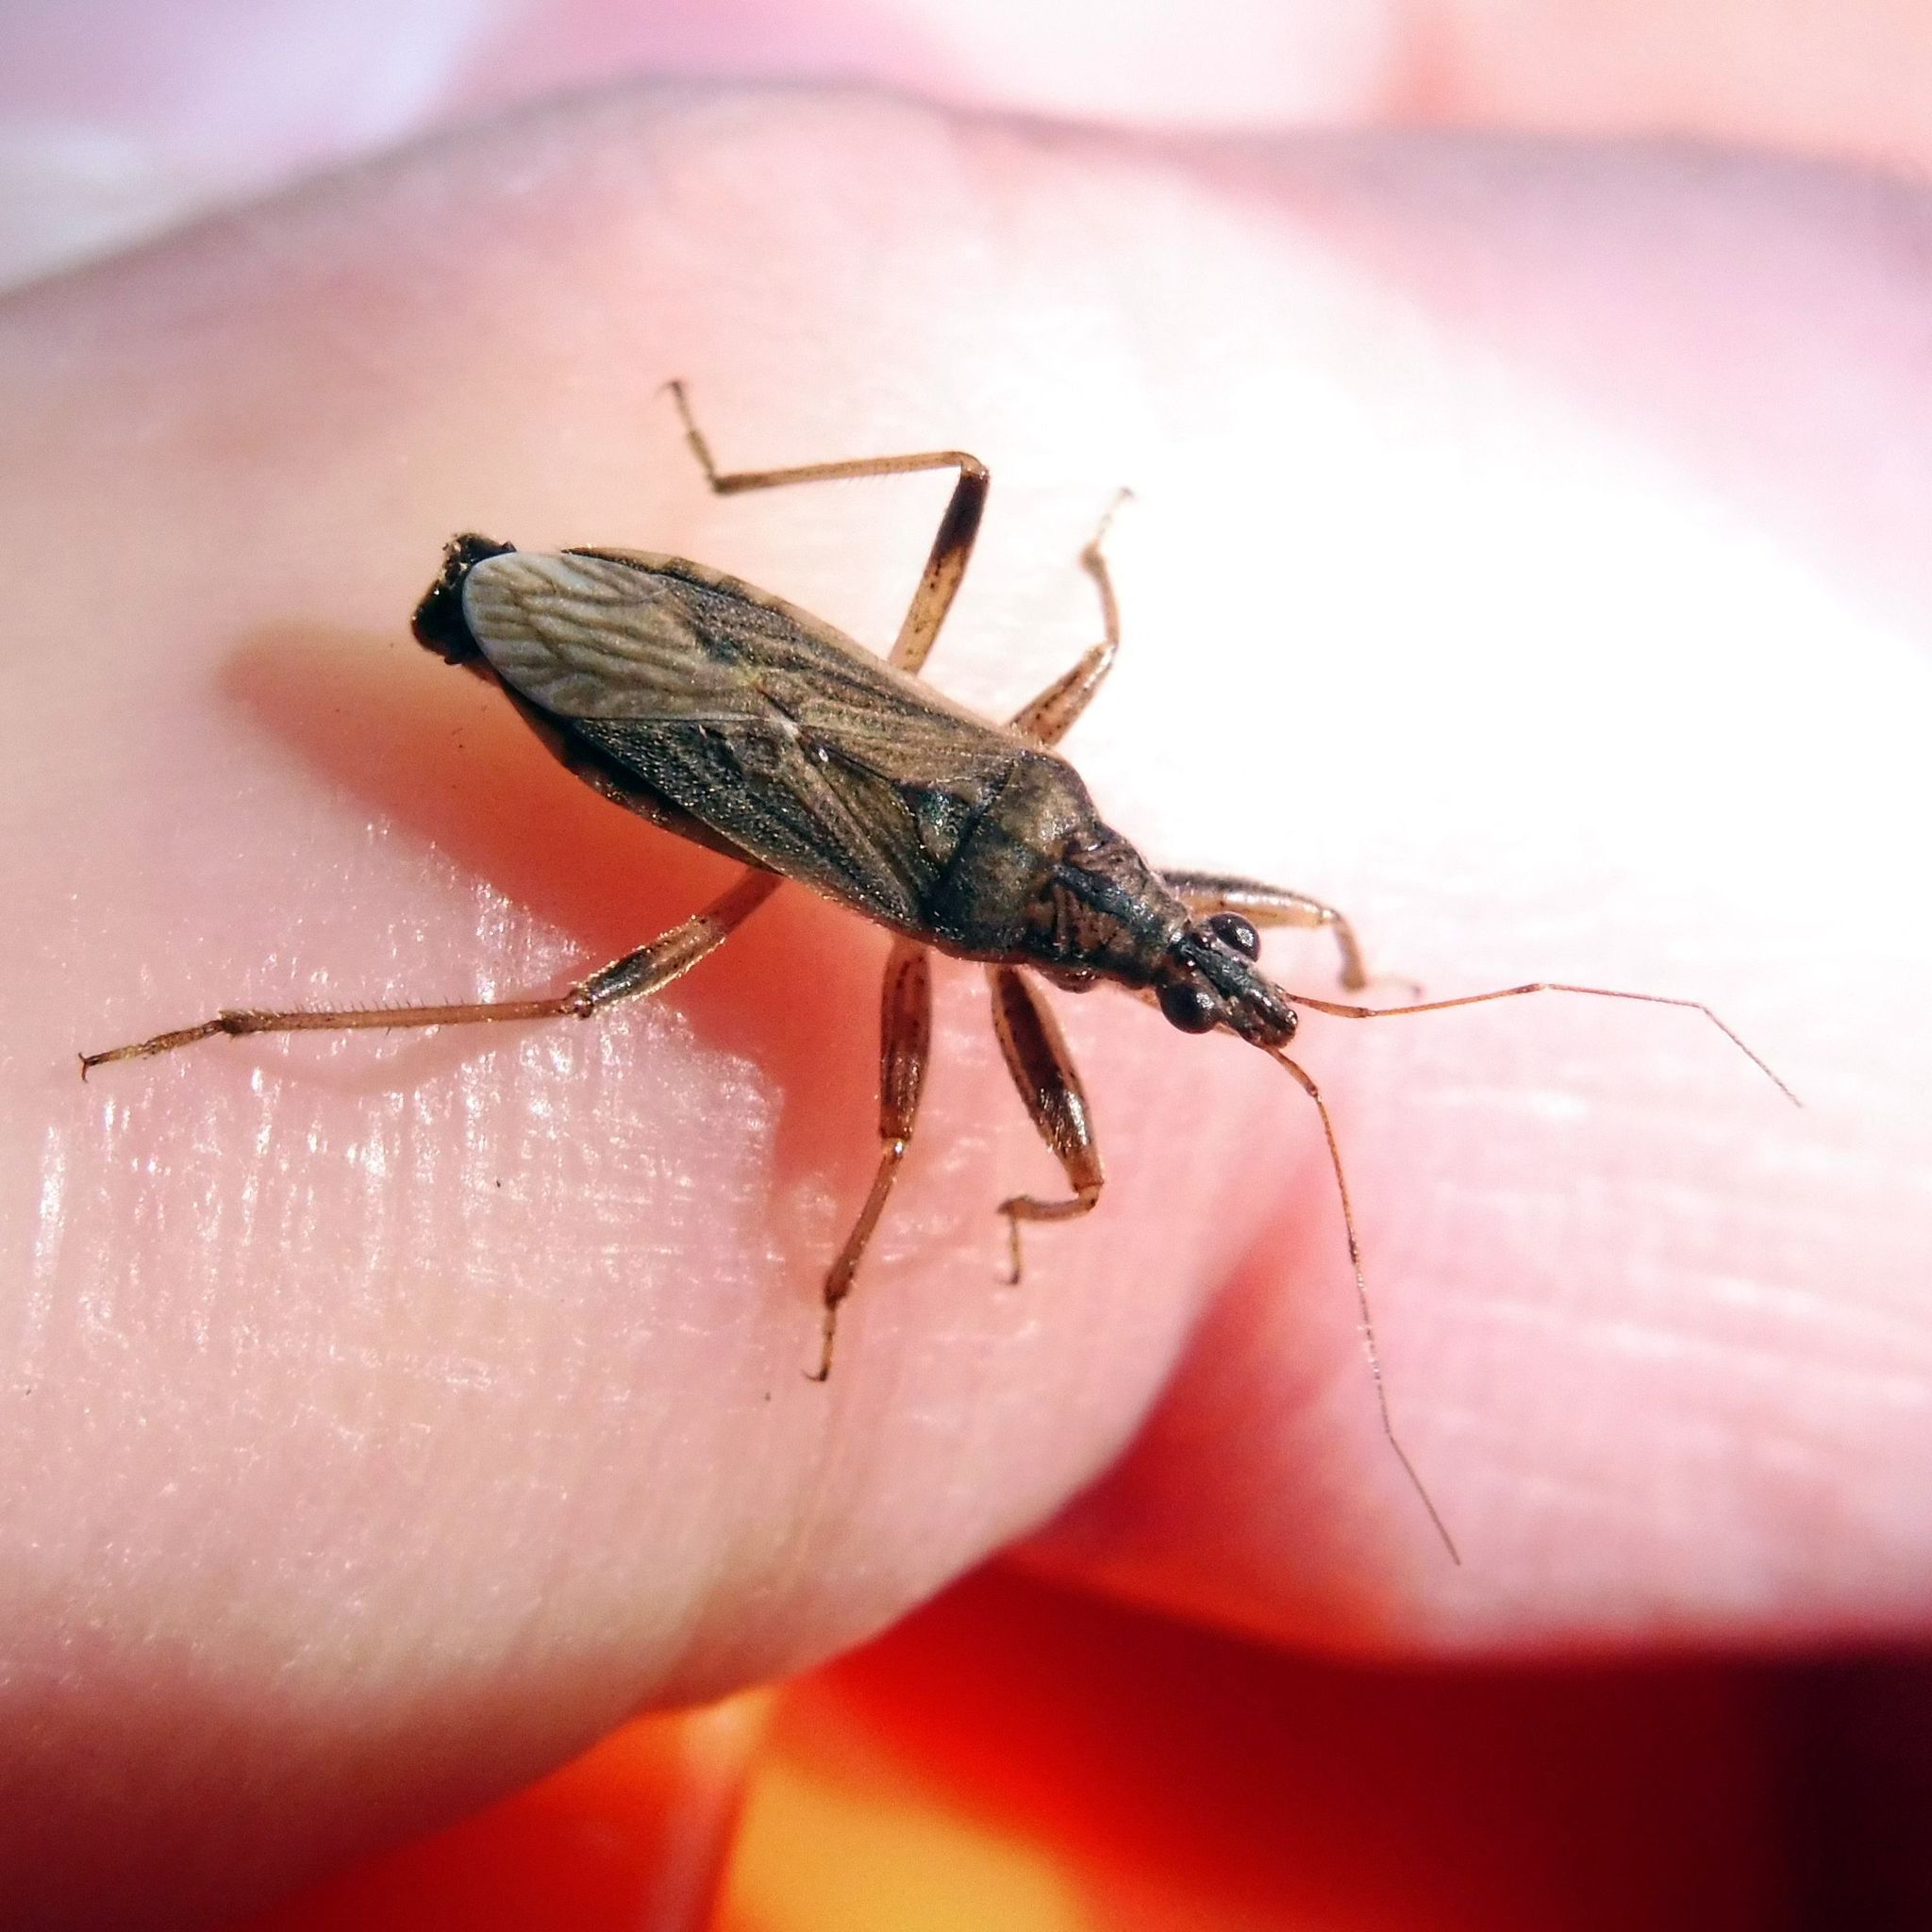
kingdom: Animalia
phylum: Arthropoda
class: Insecta
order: Hemiptera
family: Nabidae
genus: Himacerus
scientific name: Himacerus major
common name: Damsel bug
